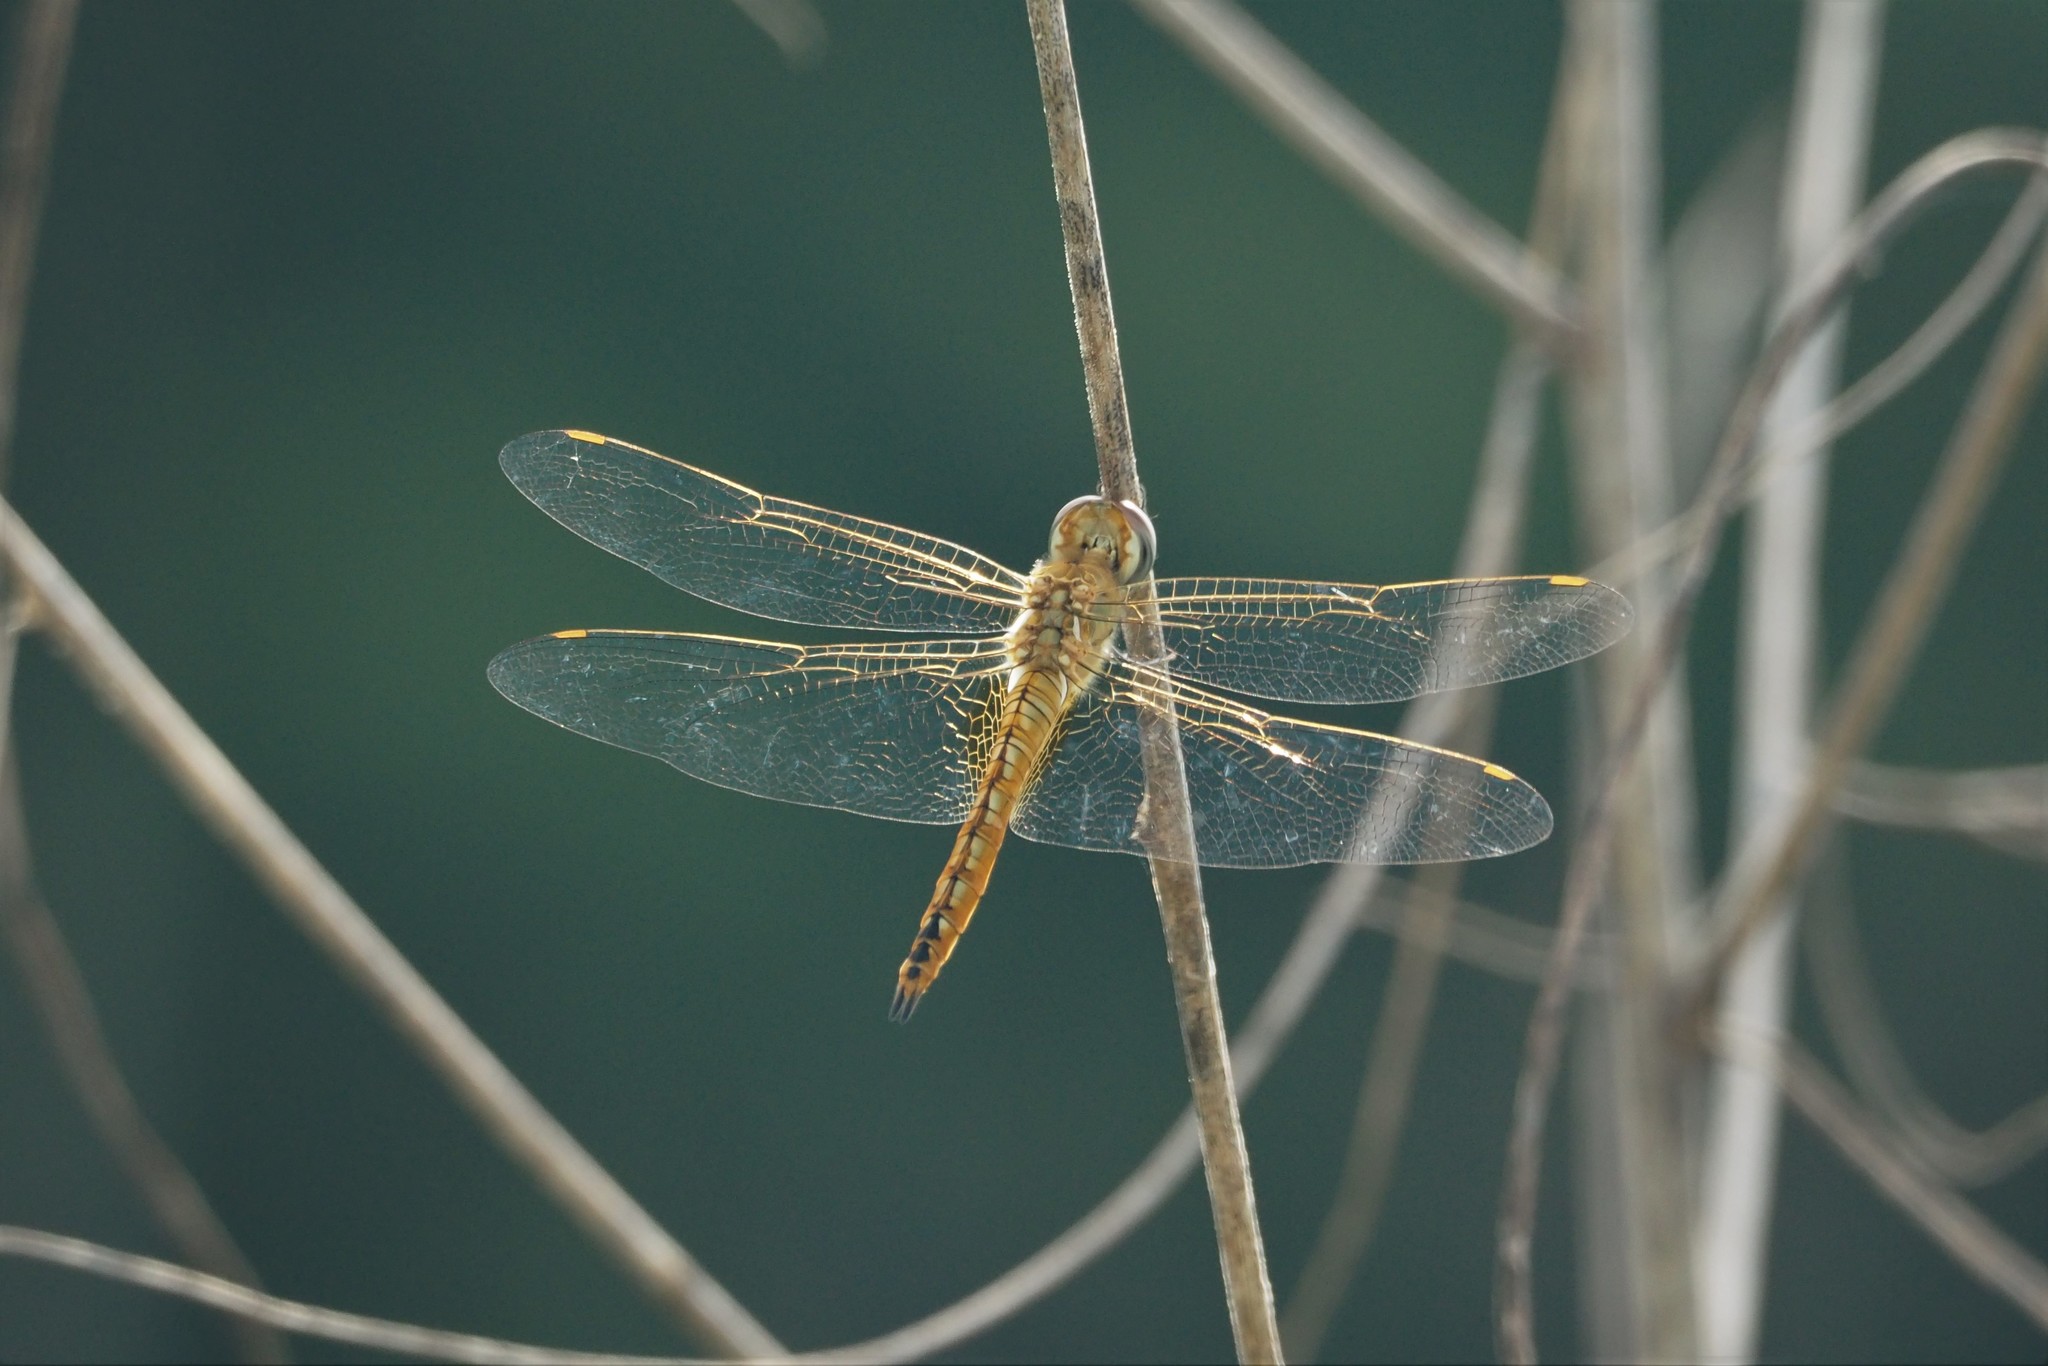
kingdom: Animalia
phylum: Arthropoda
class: Insecta
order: Odonata
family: Libellulidae
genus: Pantala
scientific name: Pantala flavescens
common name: Wandering glider
